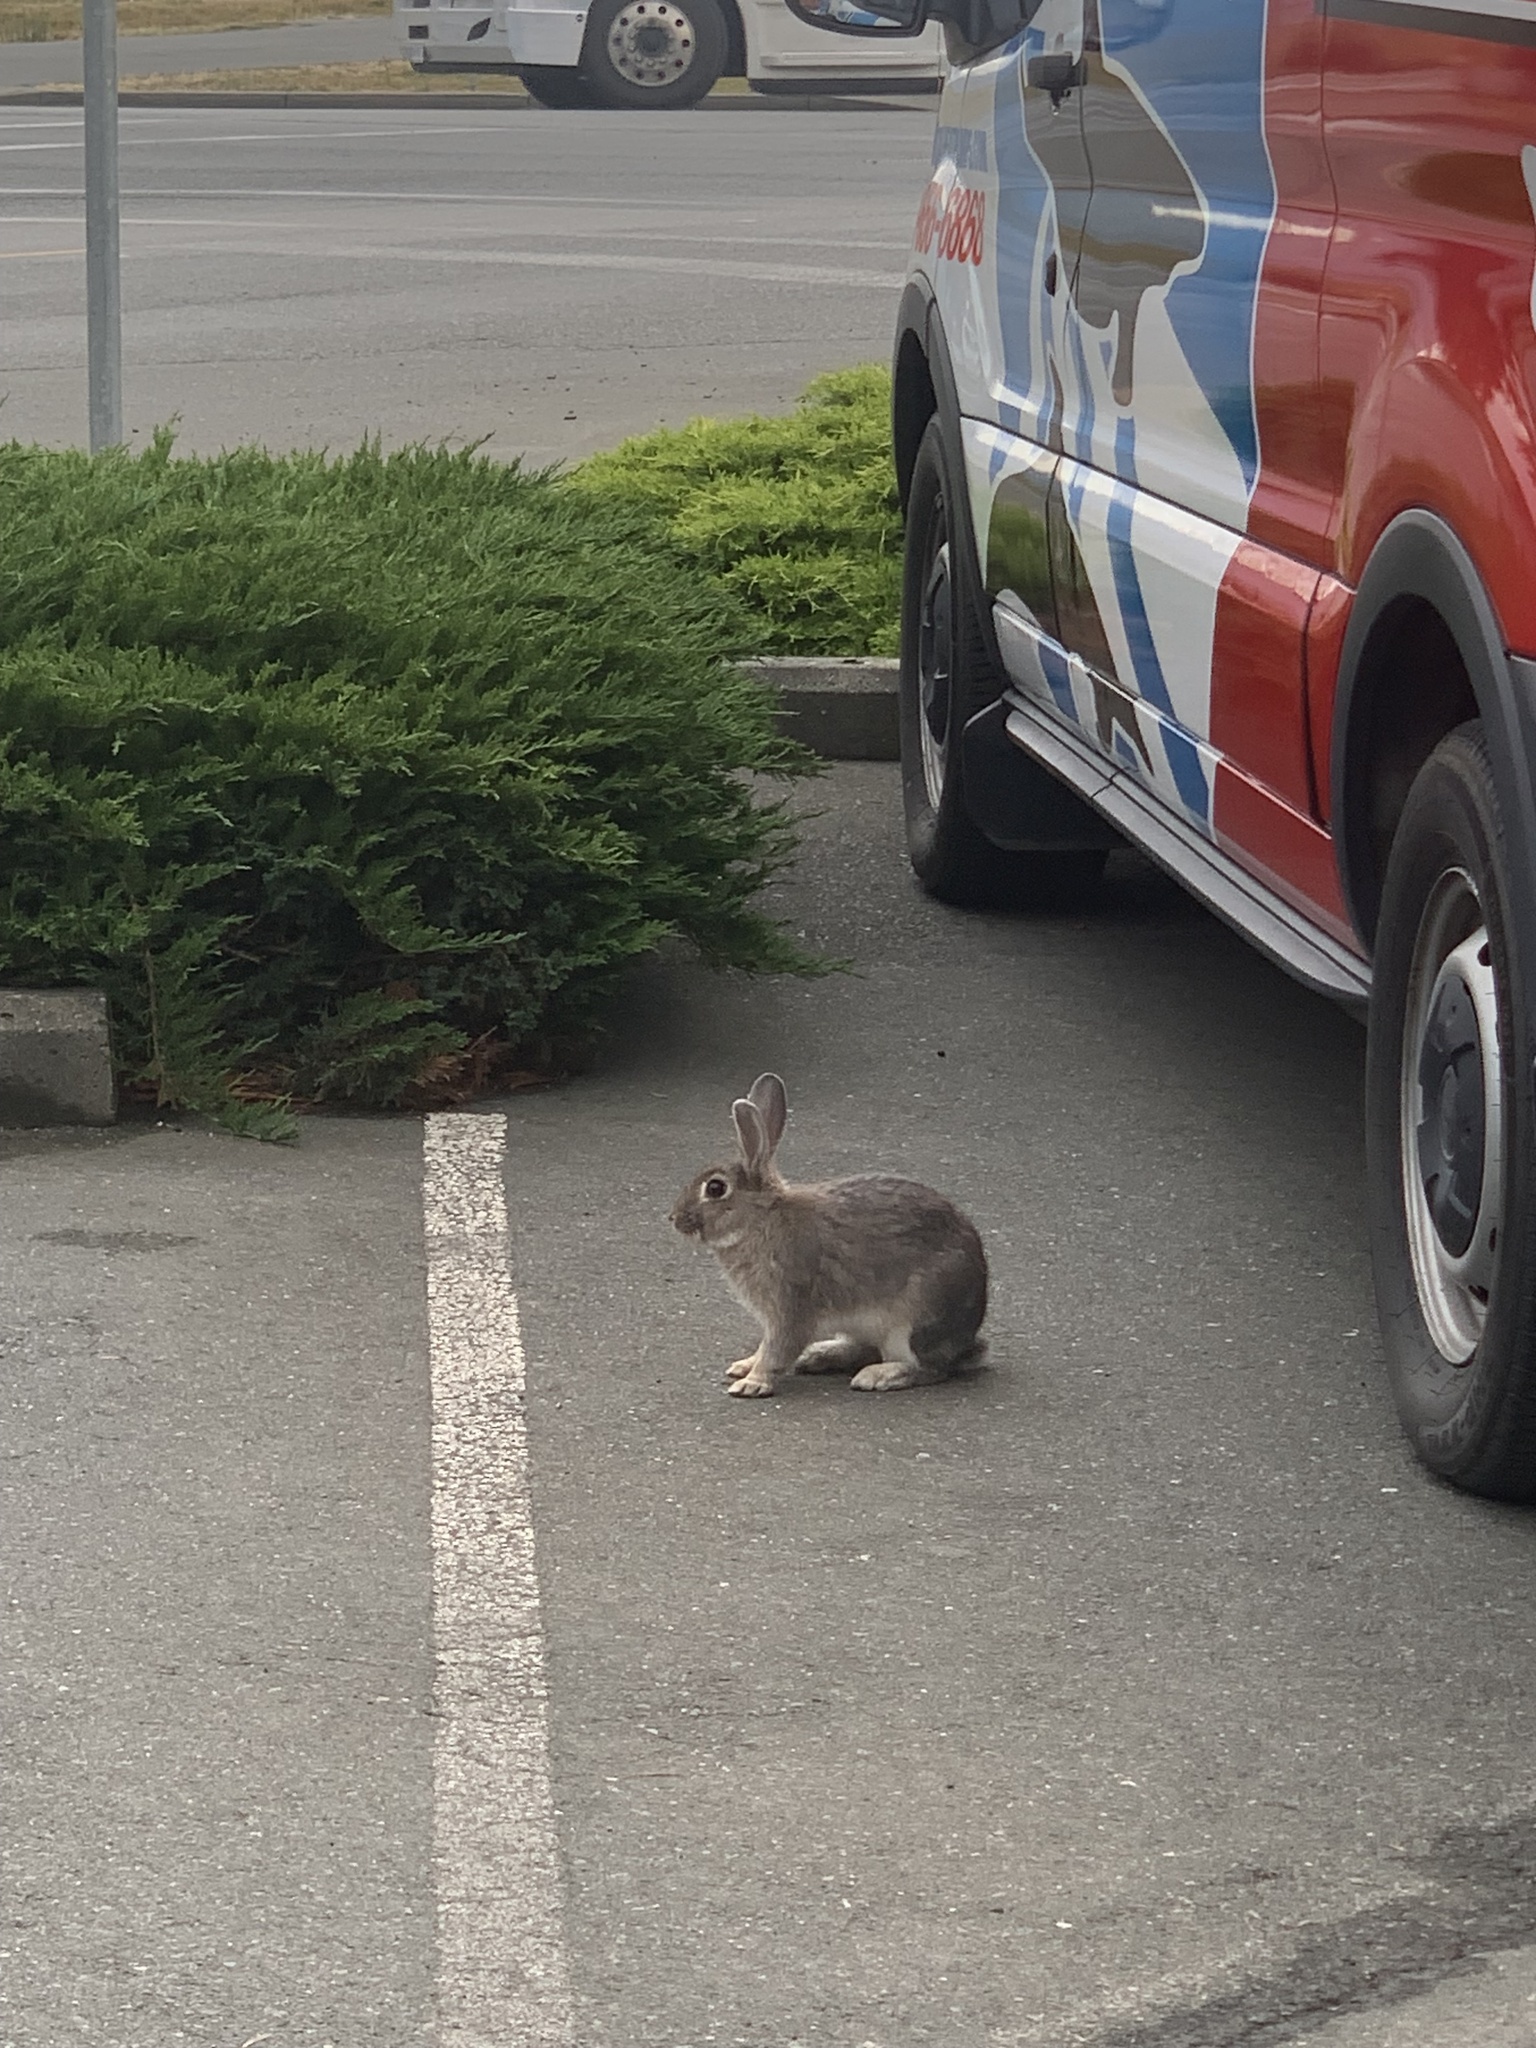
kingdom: Animalia
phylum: Chordata
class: Mammalia
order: Lagomorpha
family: Leporidae
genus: Oryctolagus
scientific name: Oryctolagus cuniculus
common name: European rabbit
